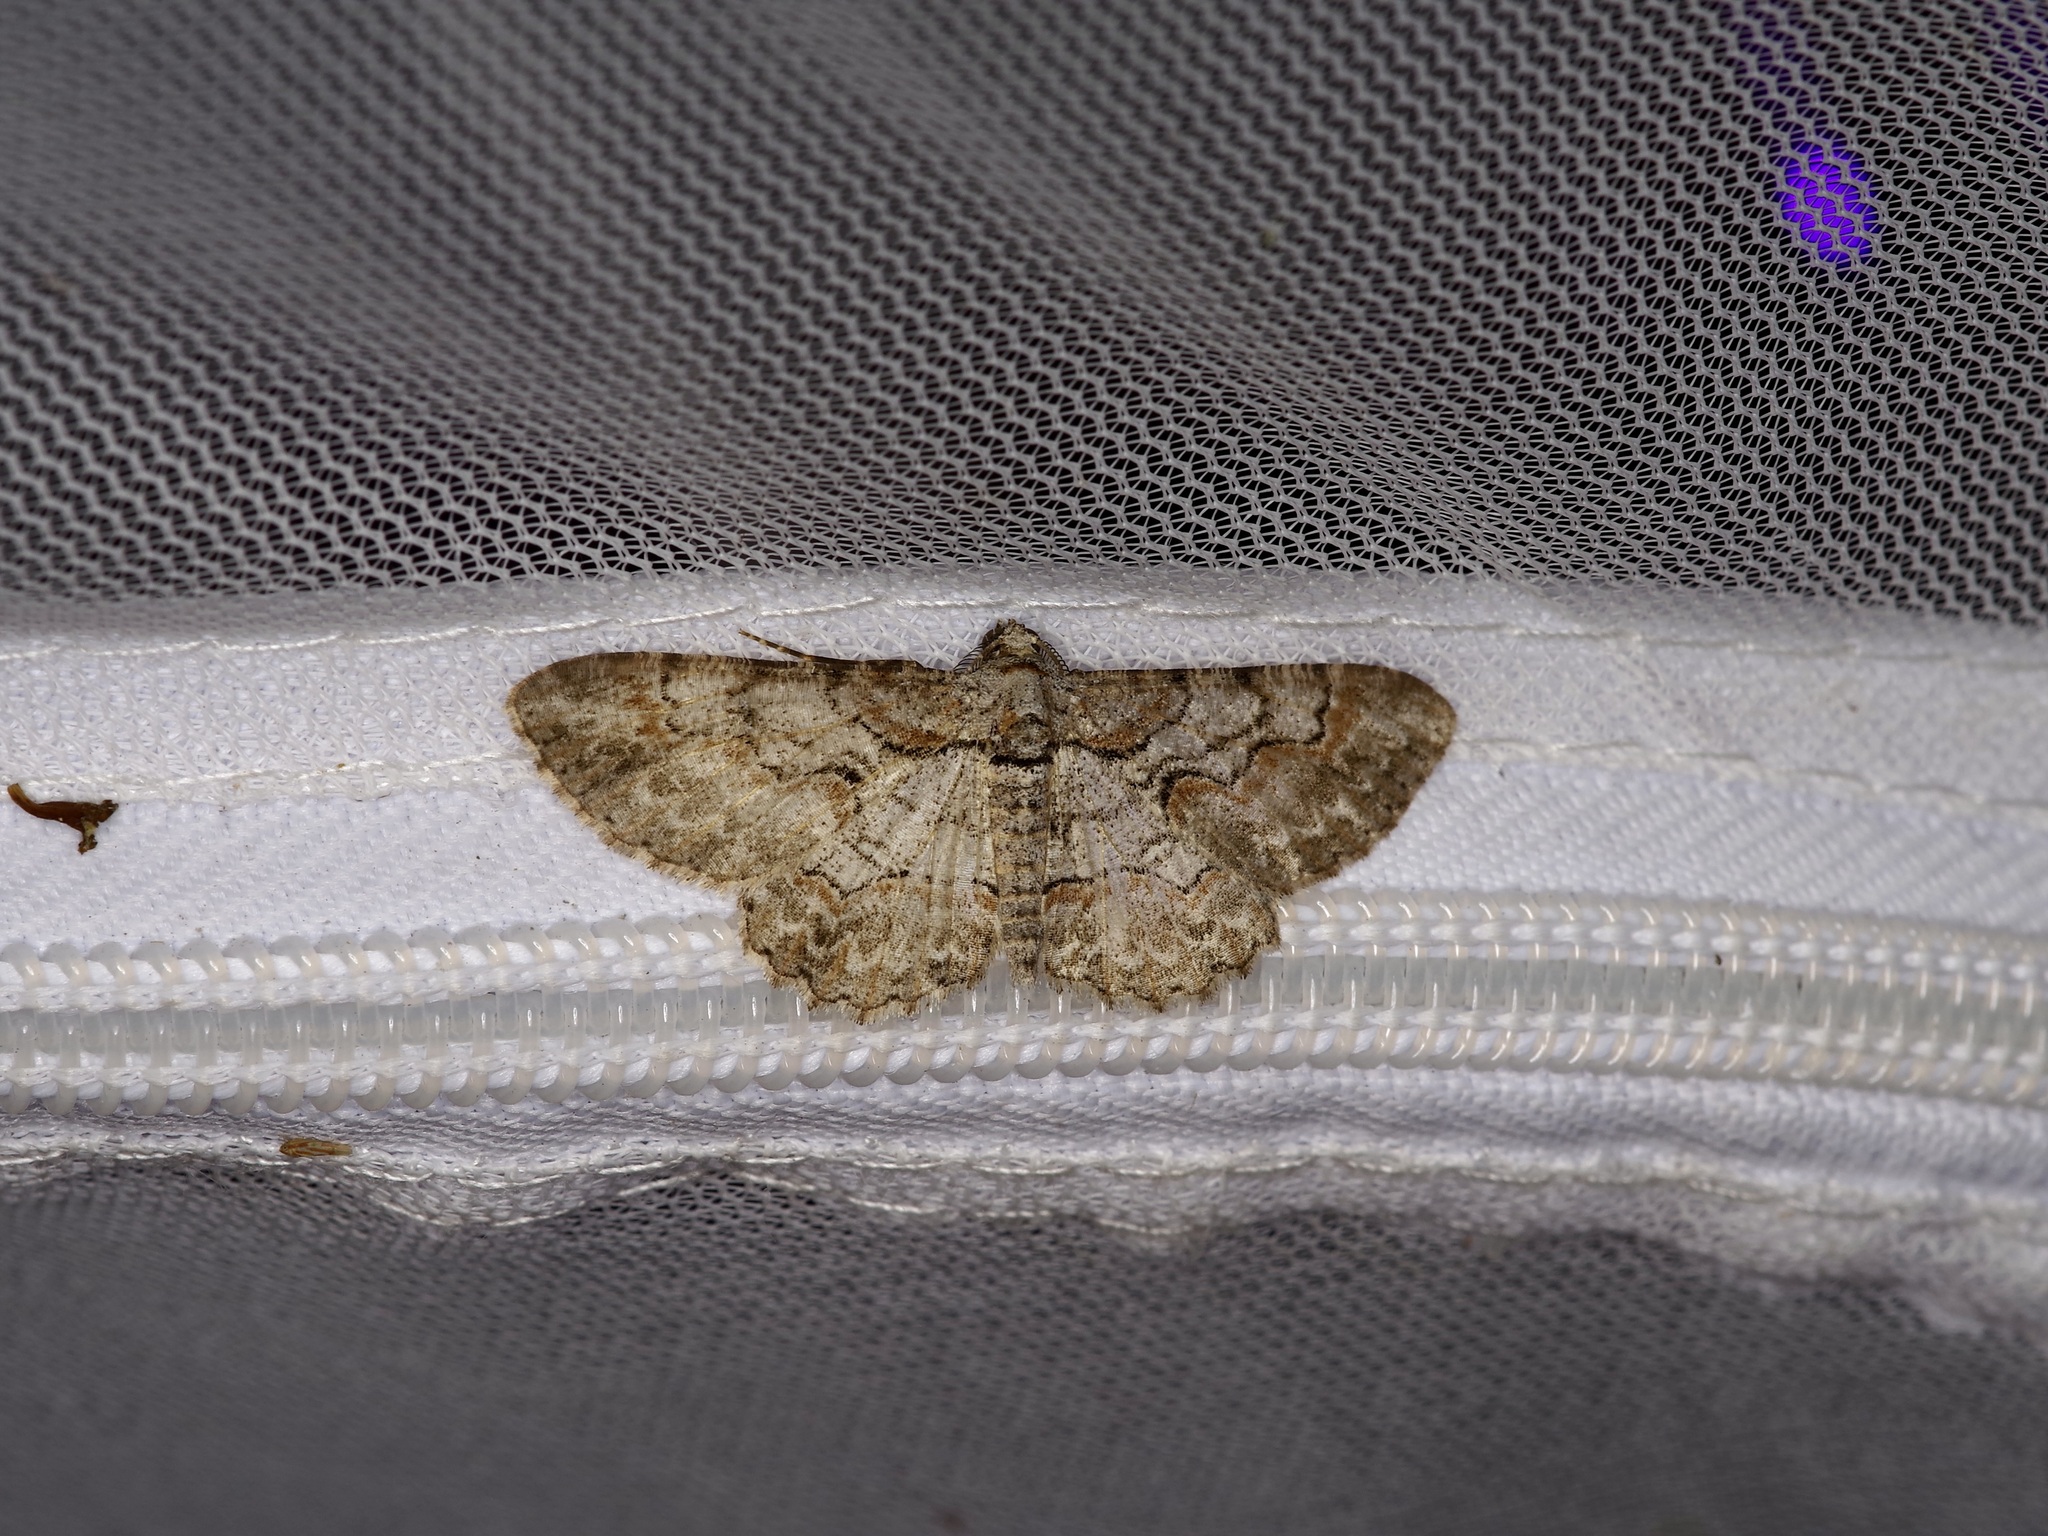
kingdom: Animalia
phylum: Arthropoda
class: Insecta
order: Lepidoptera
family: Geometridae
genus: Iridopsis
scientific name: Iridopsis defectaria
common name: Brown-shaded gray
